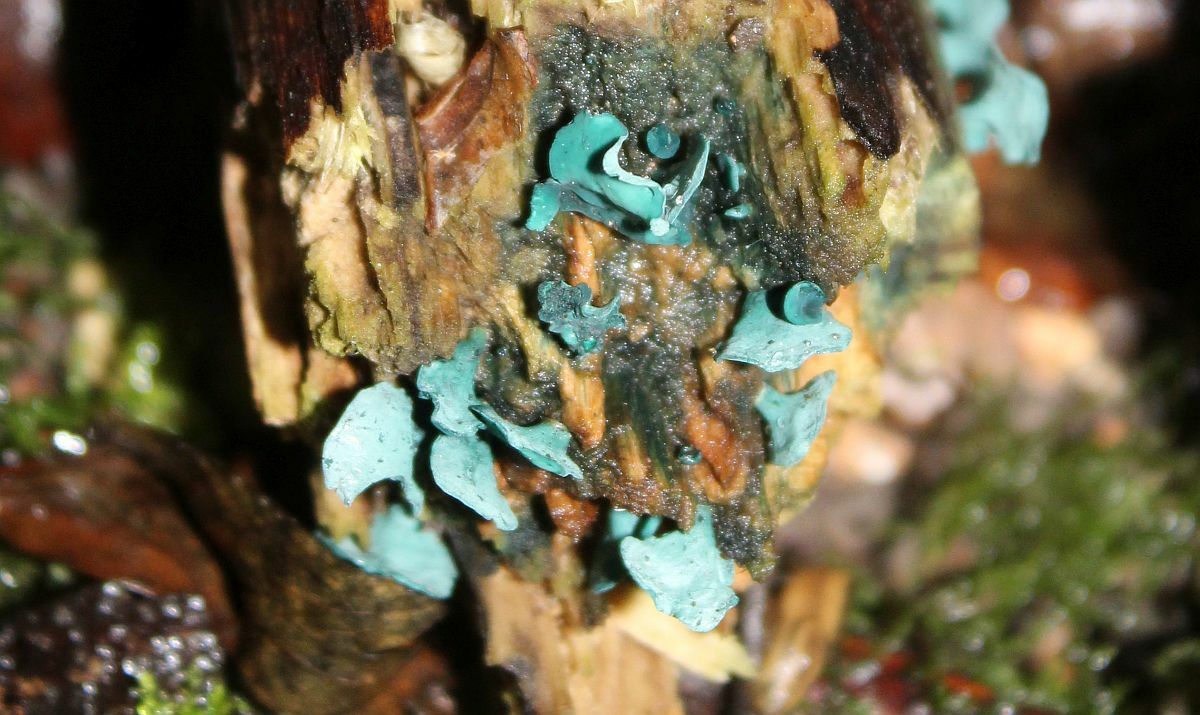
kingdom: Fungi
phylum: Ascomycota
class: Leotiomycetes
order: Helotiales
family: Chlorociboriaceae
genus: Chlorociboria
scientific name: Chlorociboria aeruginascens
